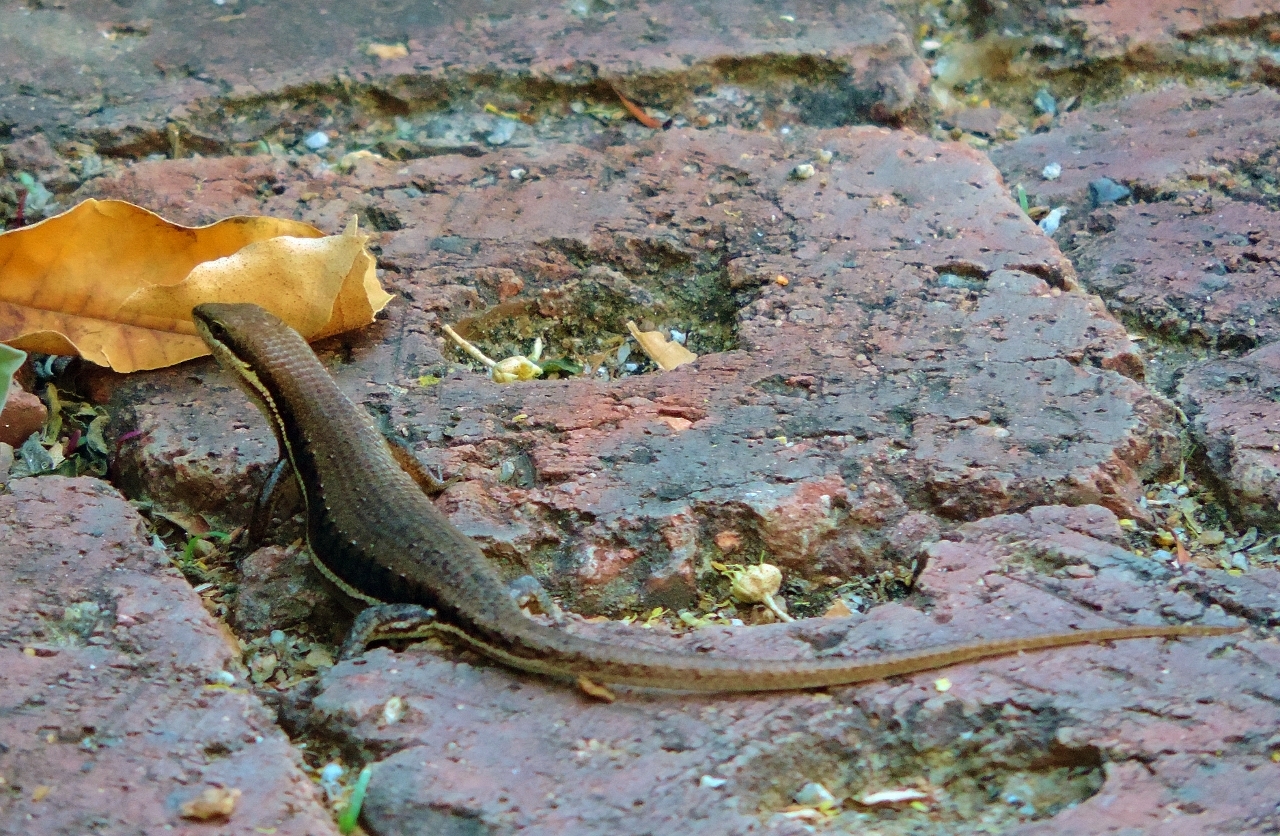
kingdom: Animalia
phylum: Chordata
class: Squamata
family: Scincidae
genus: Trachylepis
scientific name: Trachylepis varia
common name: Eastern variable skink
